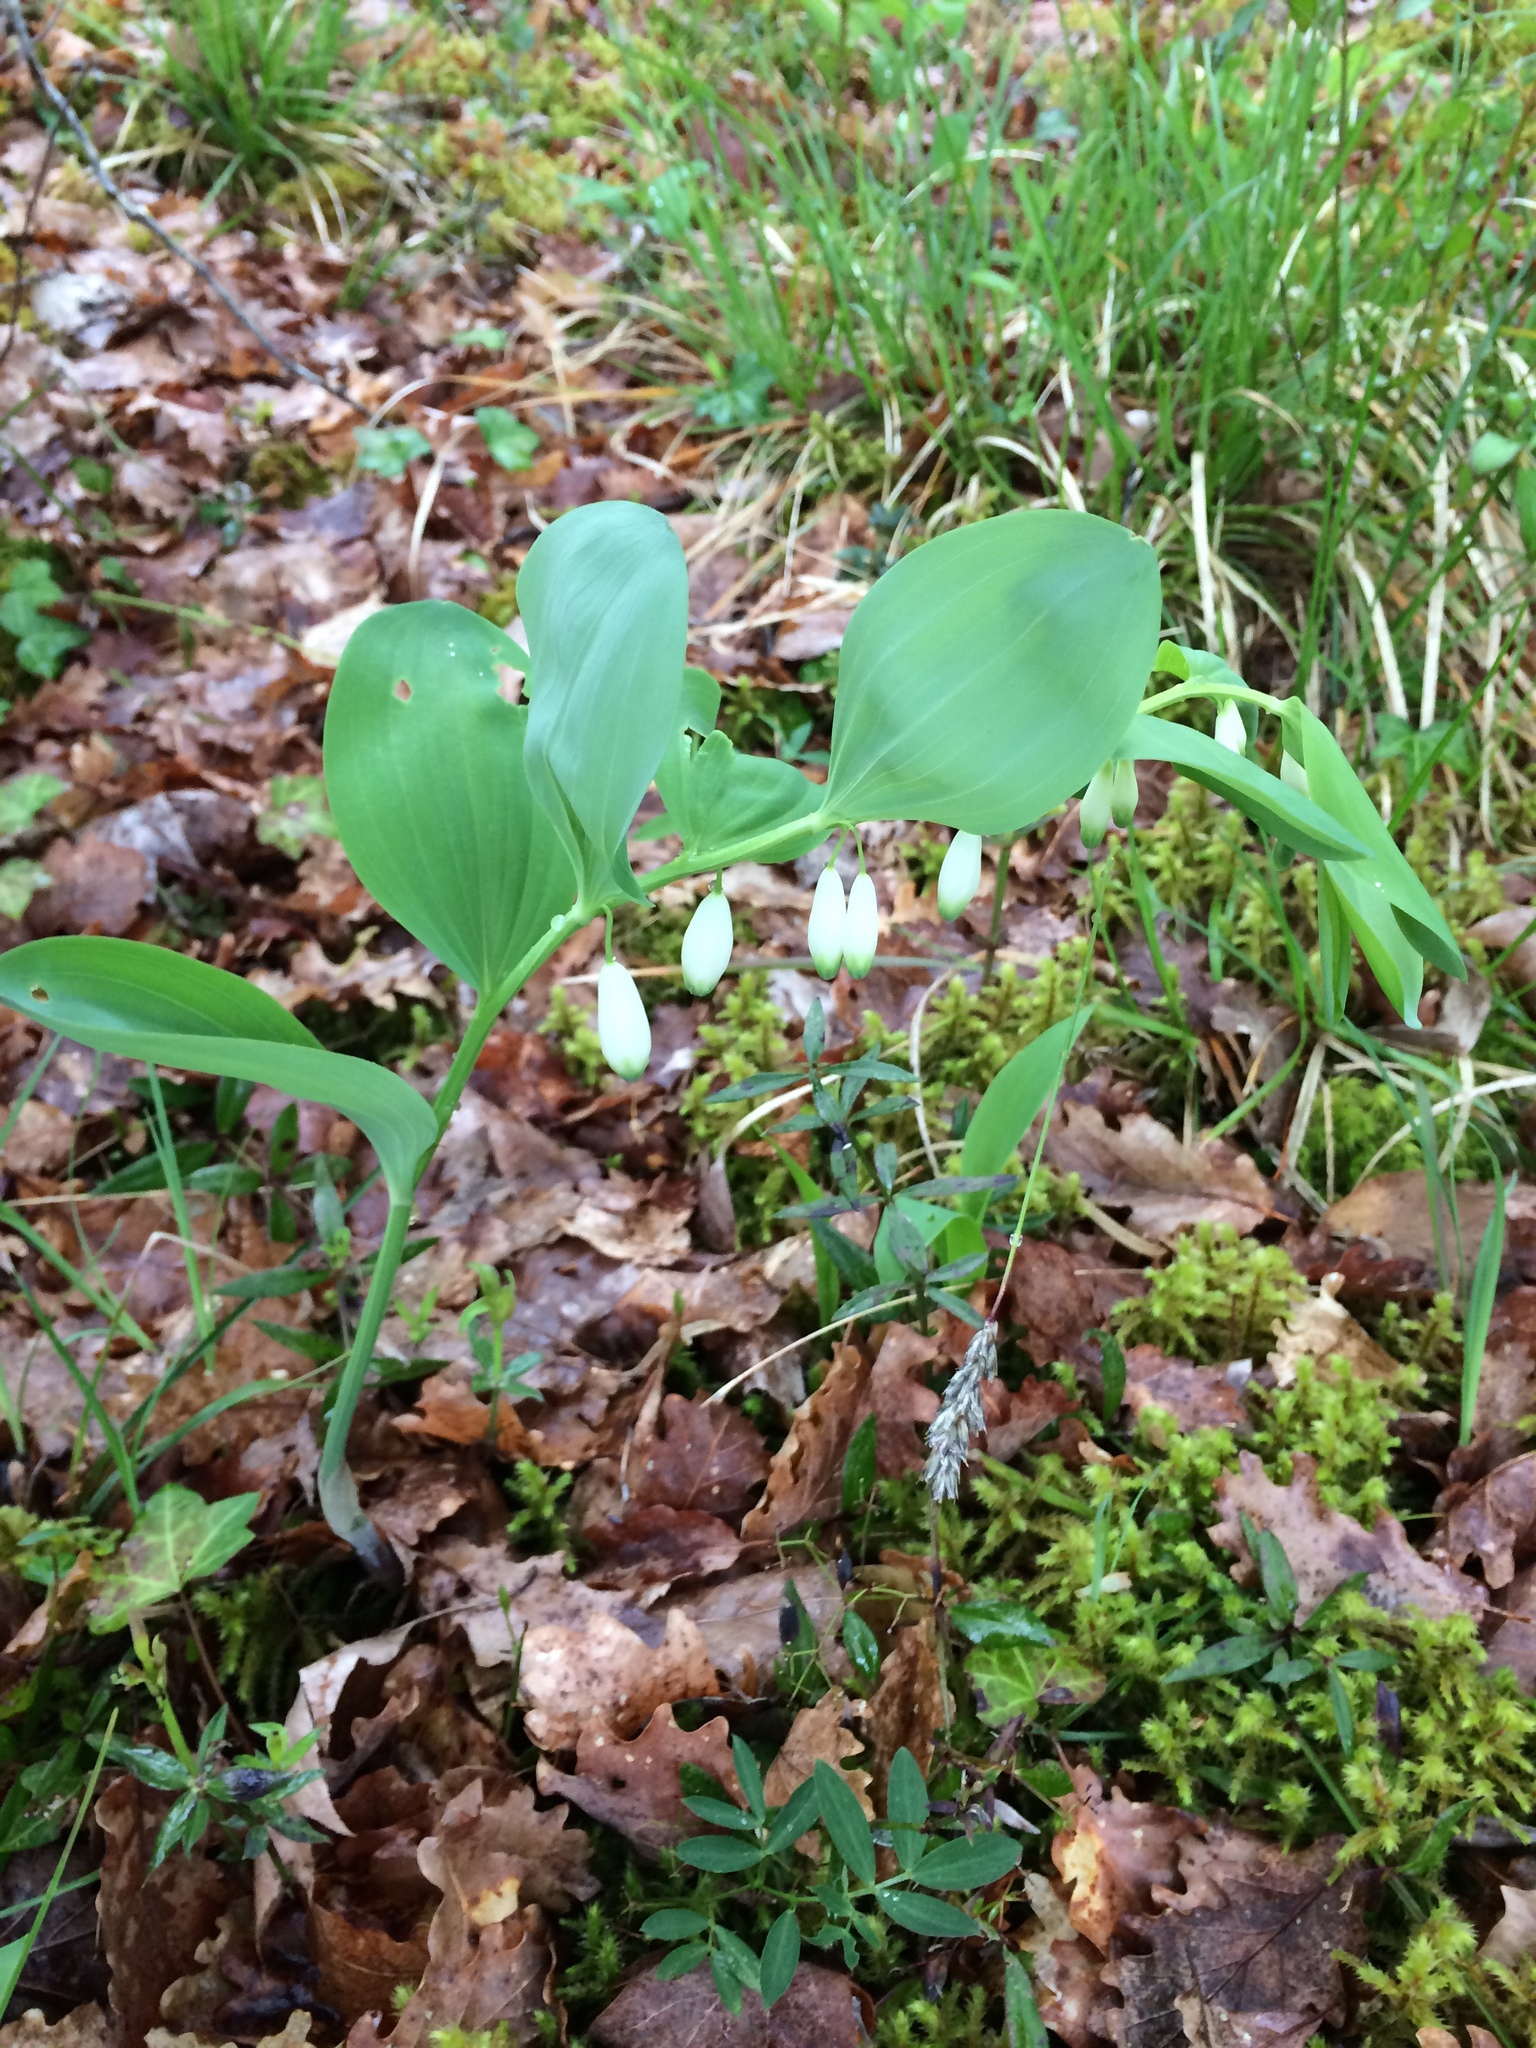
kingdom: Plantae
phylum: Tracheophyta
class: Liliopsida
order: Asparagales
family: Asparagaceae
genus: Polygonatum
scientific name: Polygonatum odoratum
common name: Angular solomon's-seal
